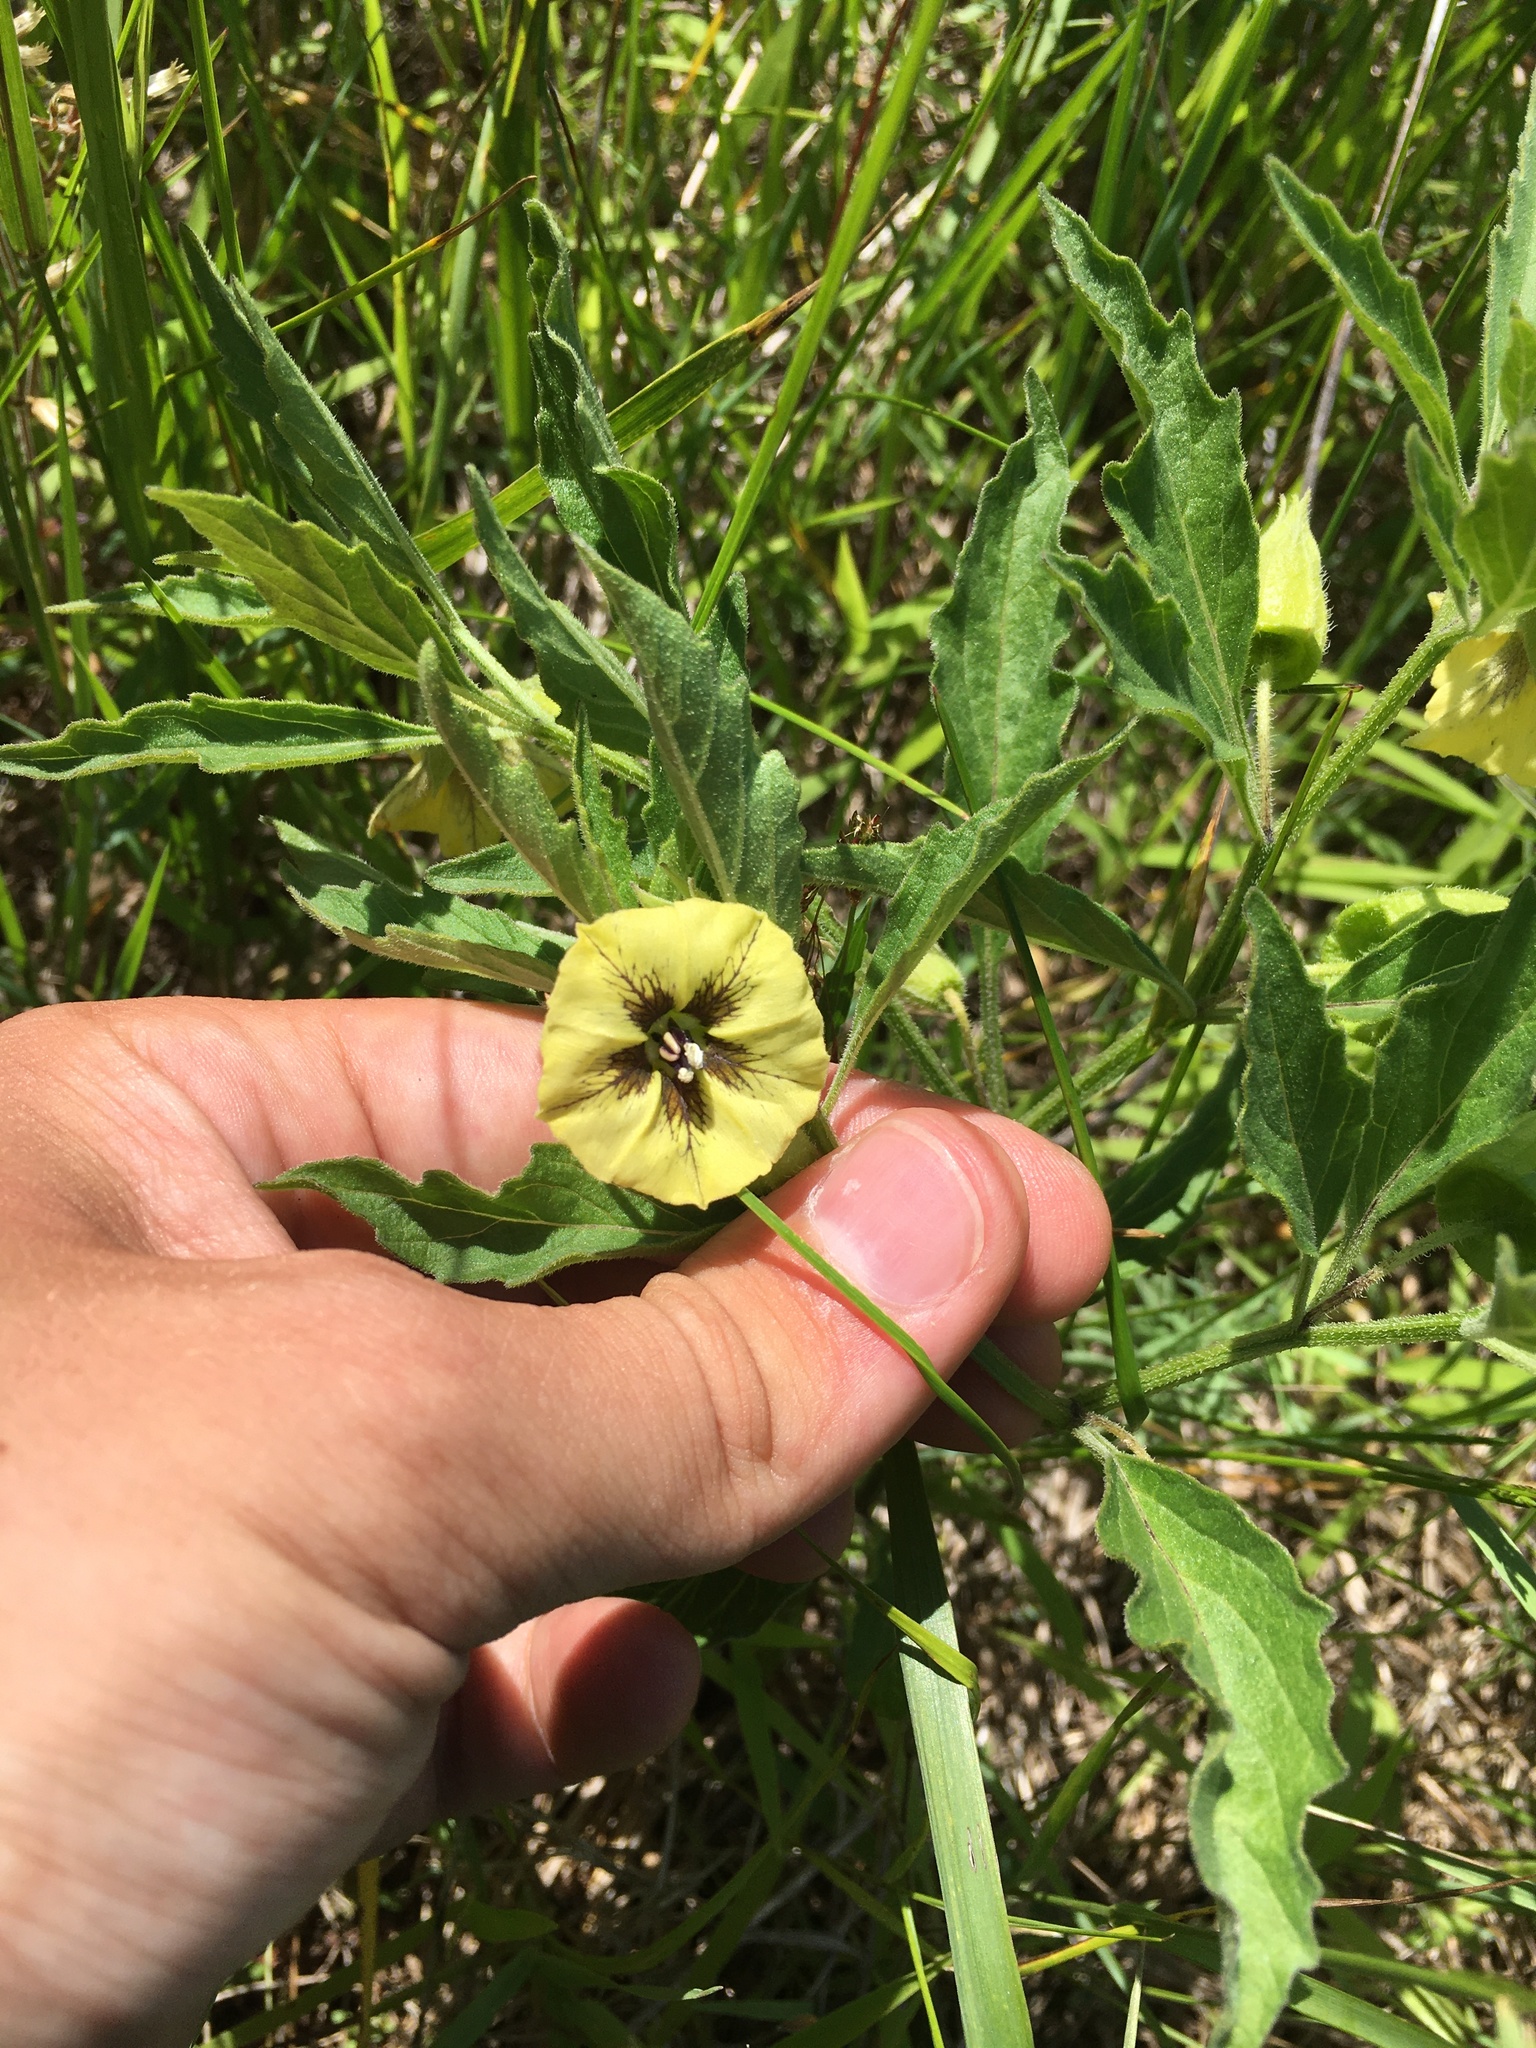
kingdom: Plantae
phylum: Tracheophyta
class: Magnoliopsida
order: Solanales
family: Solanaceae
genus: Physalis
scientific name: Physalis virginiana
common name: Virginia ground-cherry
